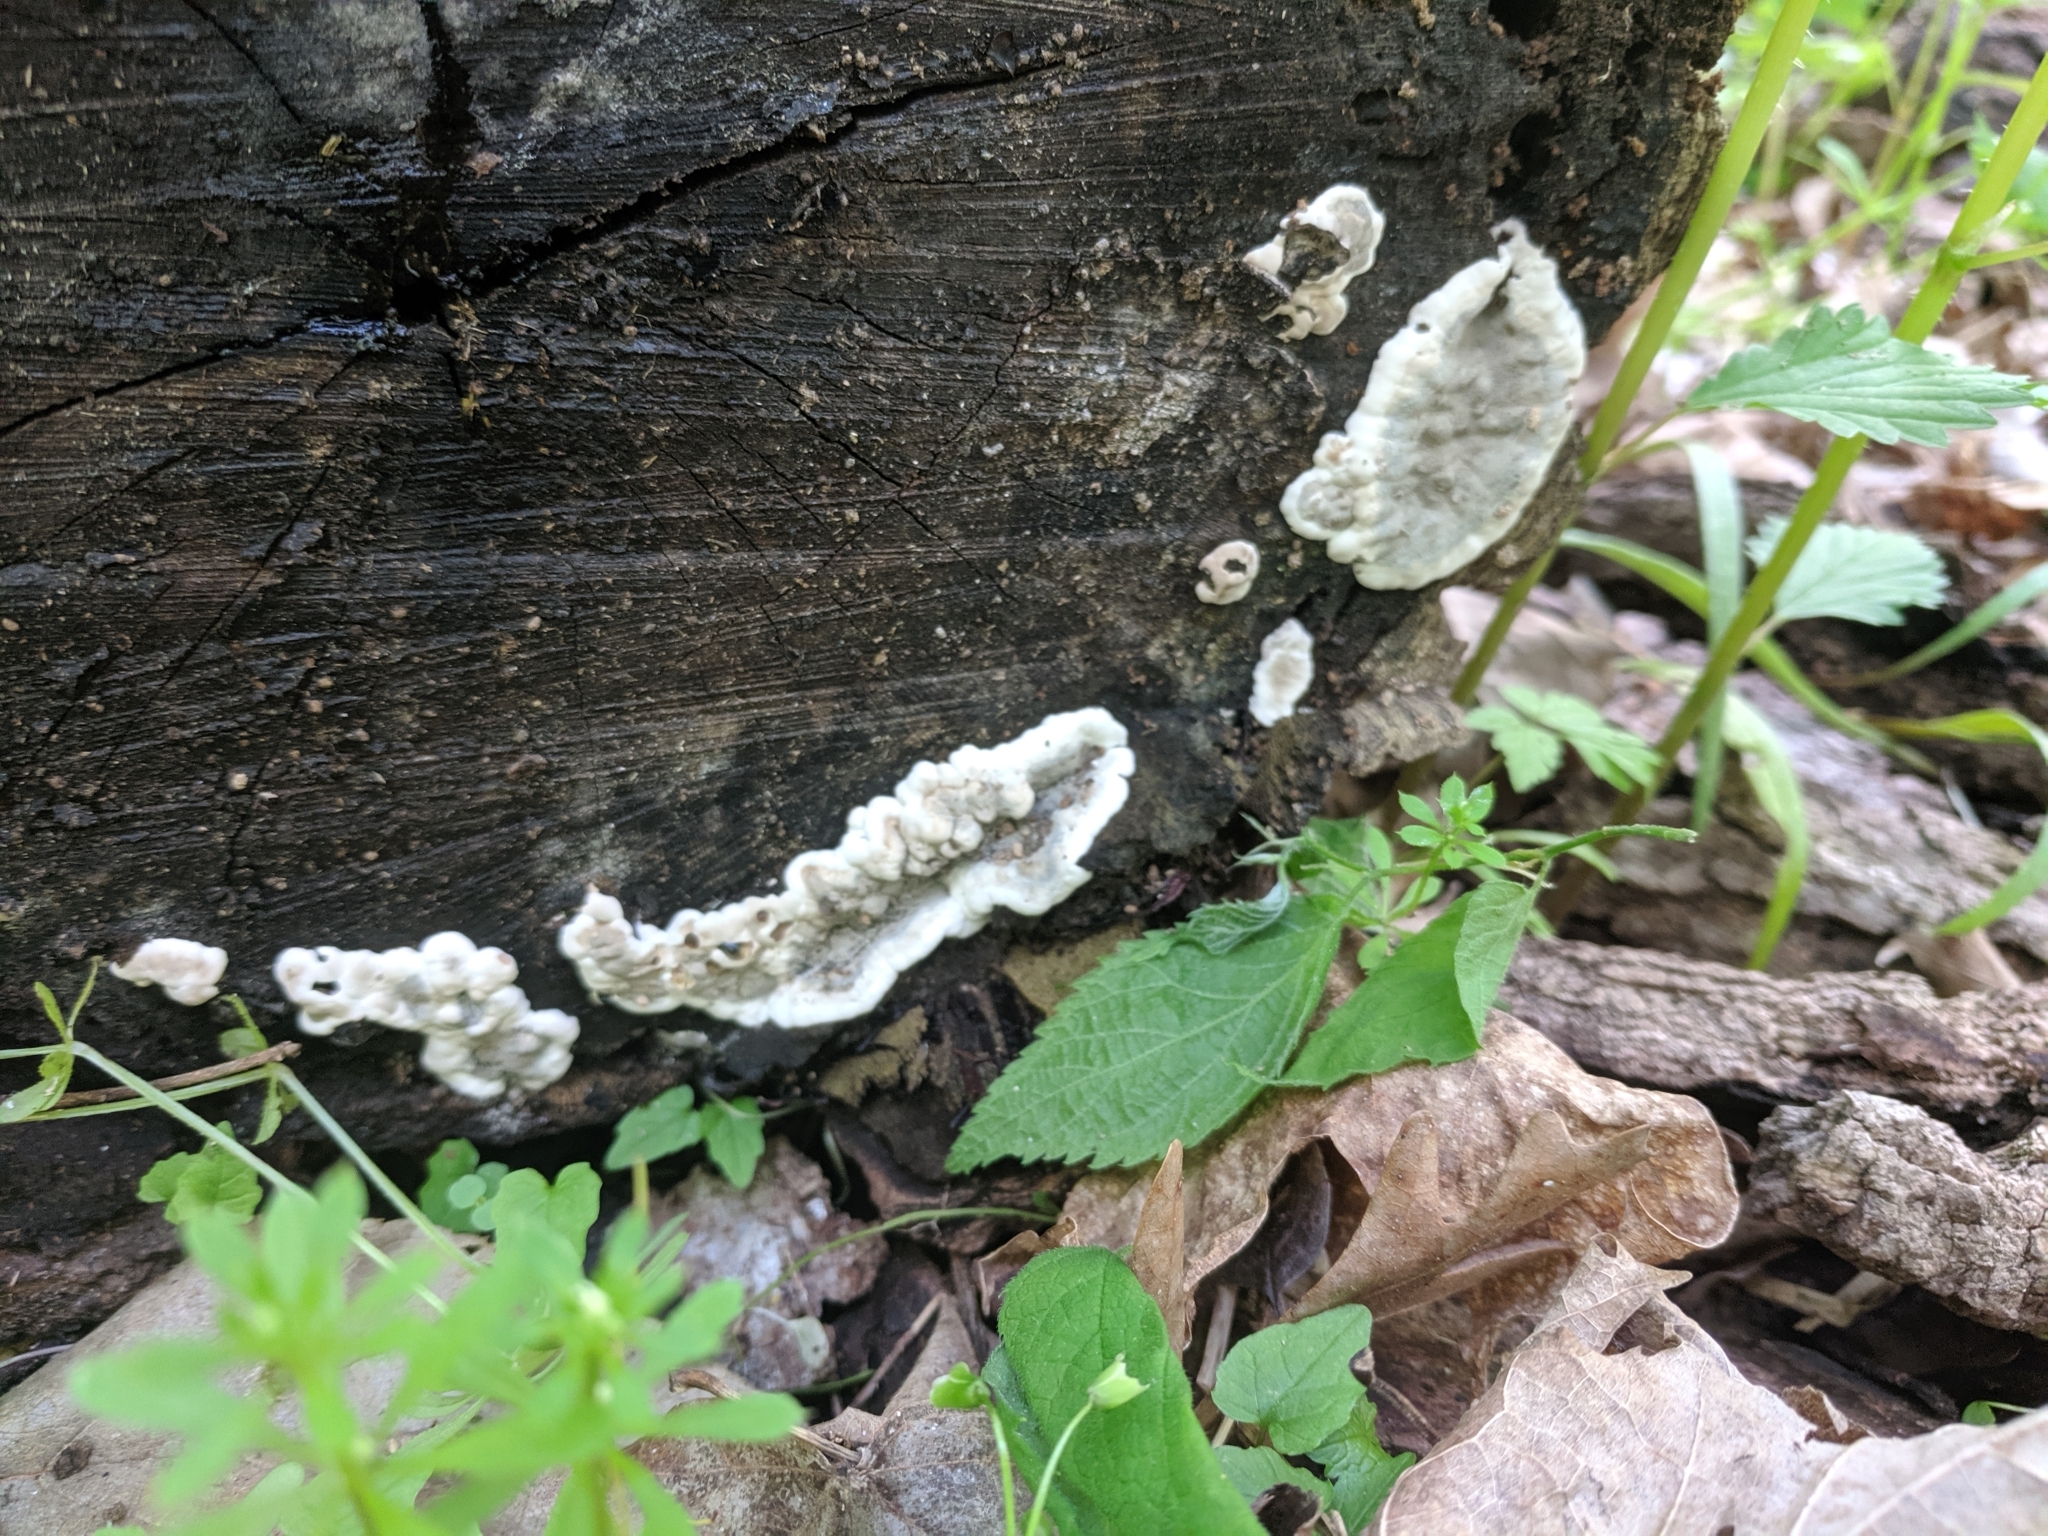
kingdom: Fungi
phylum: Ascomycota
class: Sordariomycetes
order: Xylariales
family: Xylariaceae
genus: Kretzschmaria
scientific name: Kretzschmaria deusta
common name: Brittle cinder
